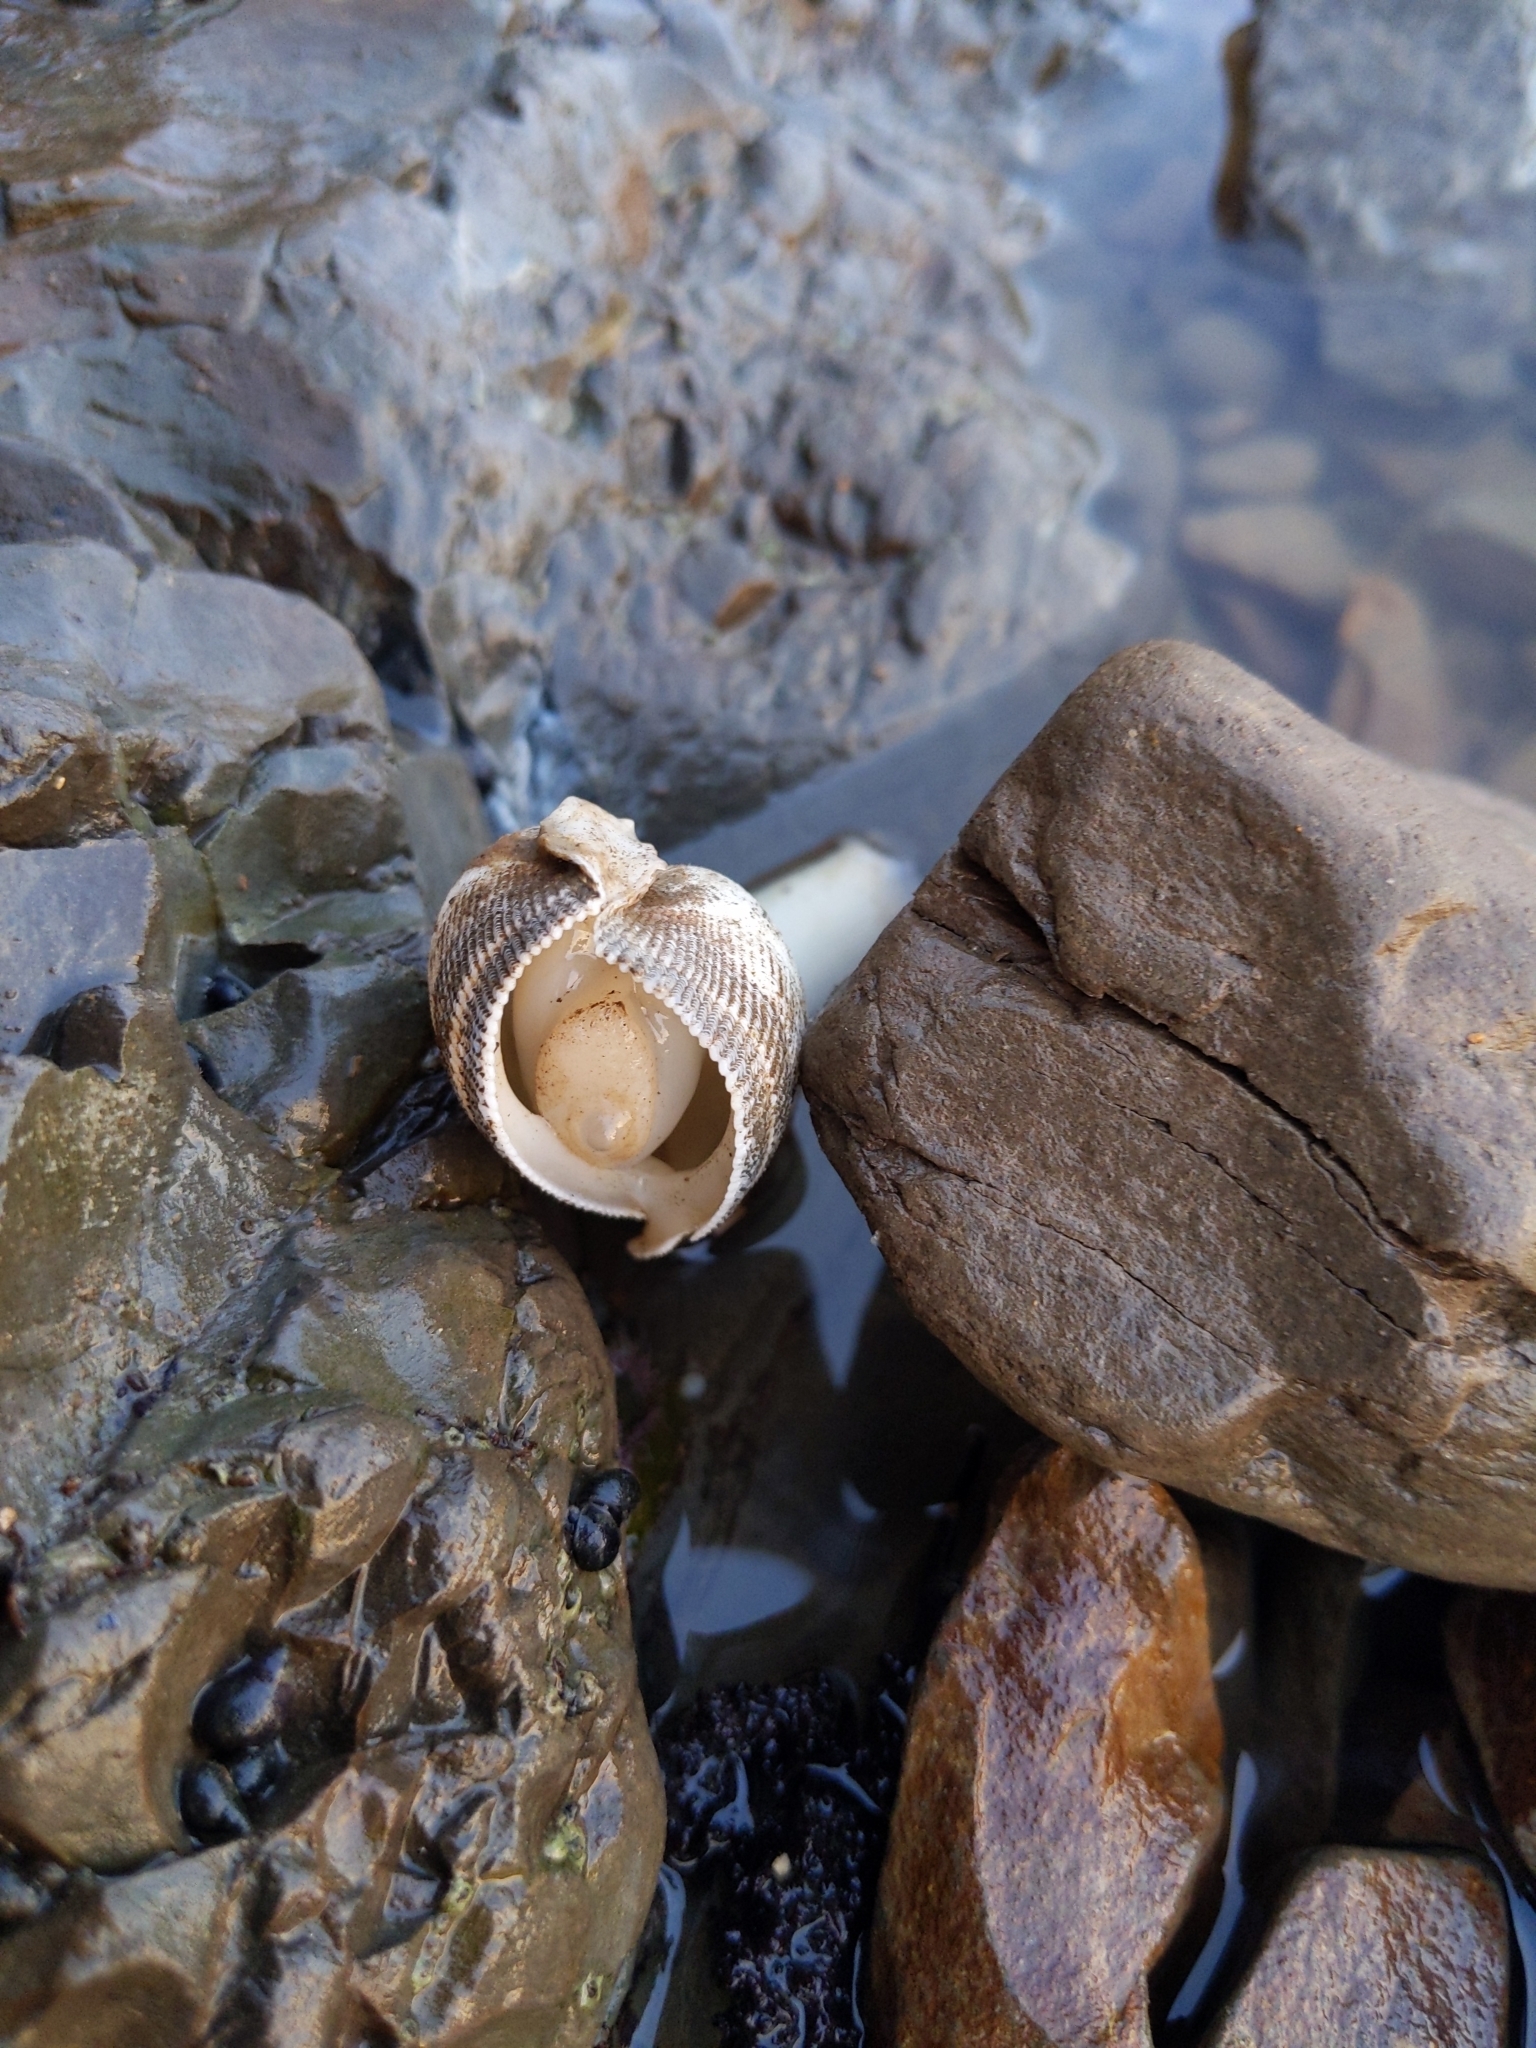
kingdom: Animalia
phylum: Mollusca
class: Bivalvia
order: Myida
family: Pholadidae
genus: Parapholas
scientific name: Parapholas californica
